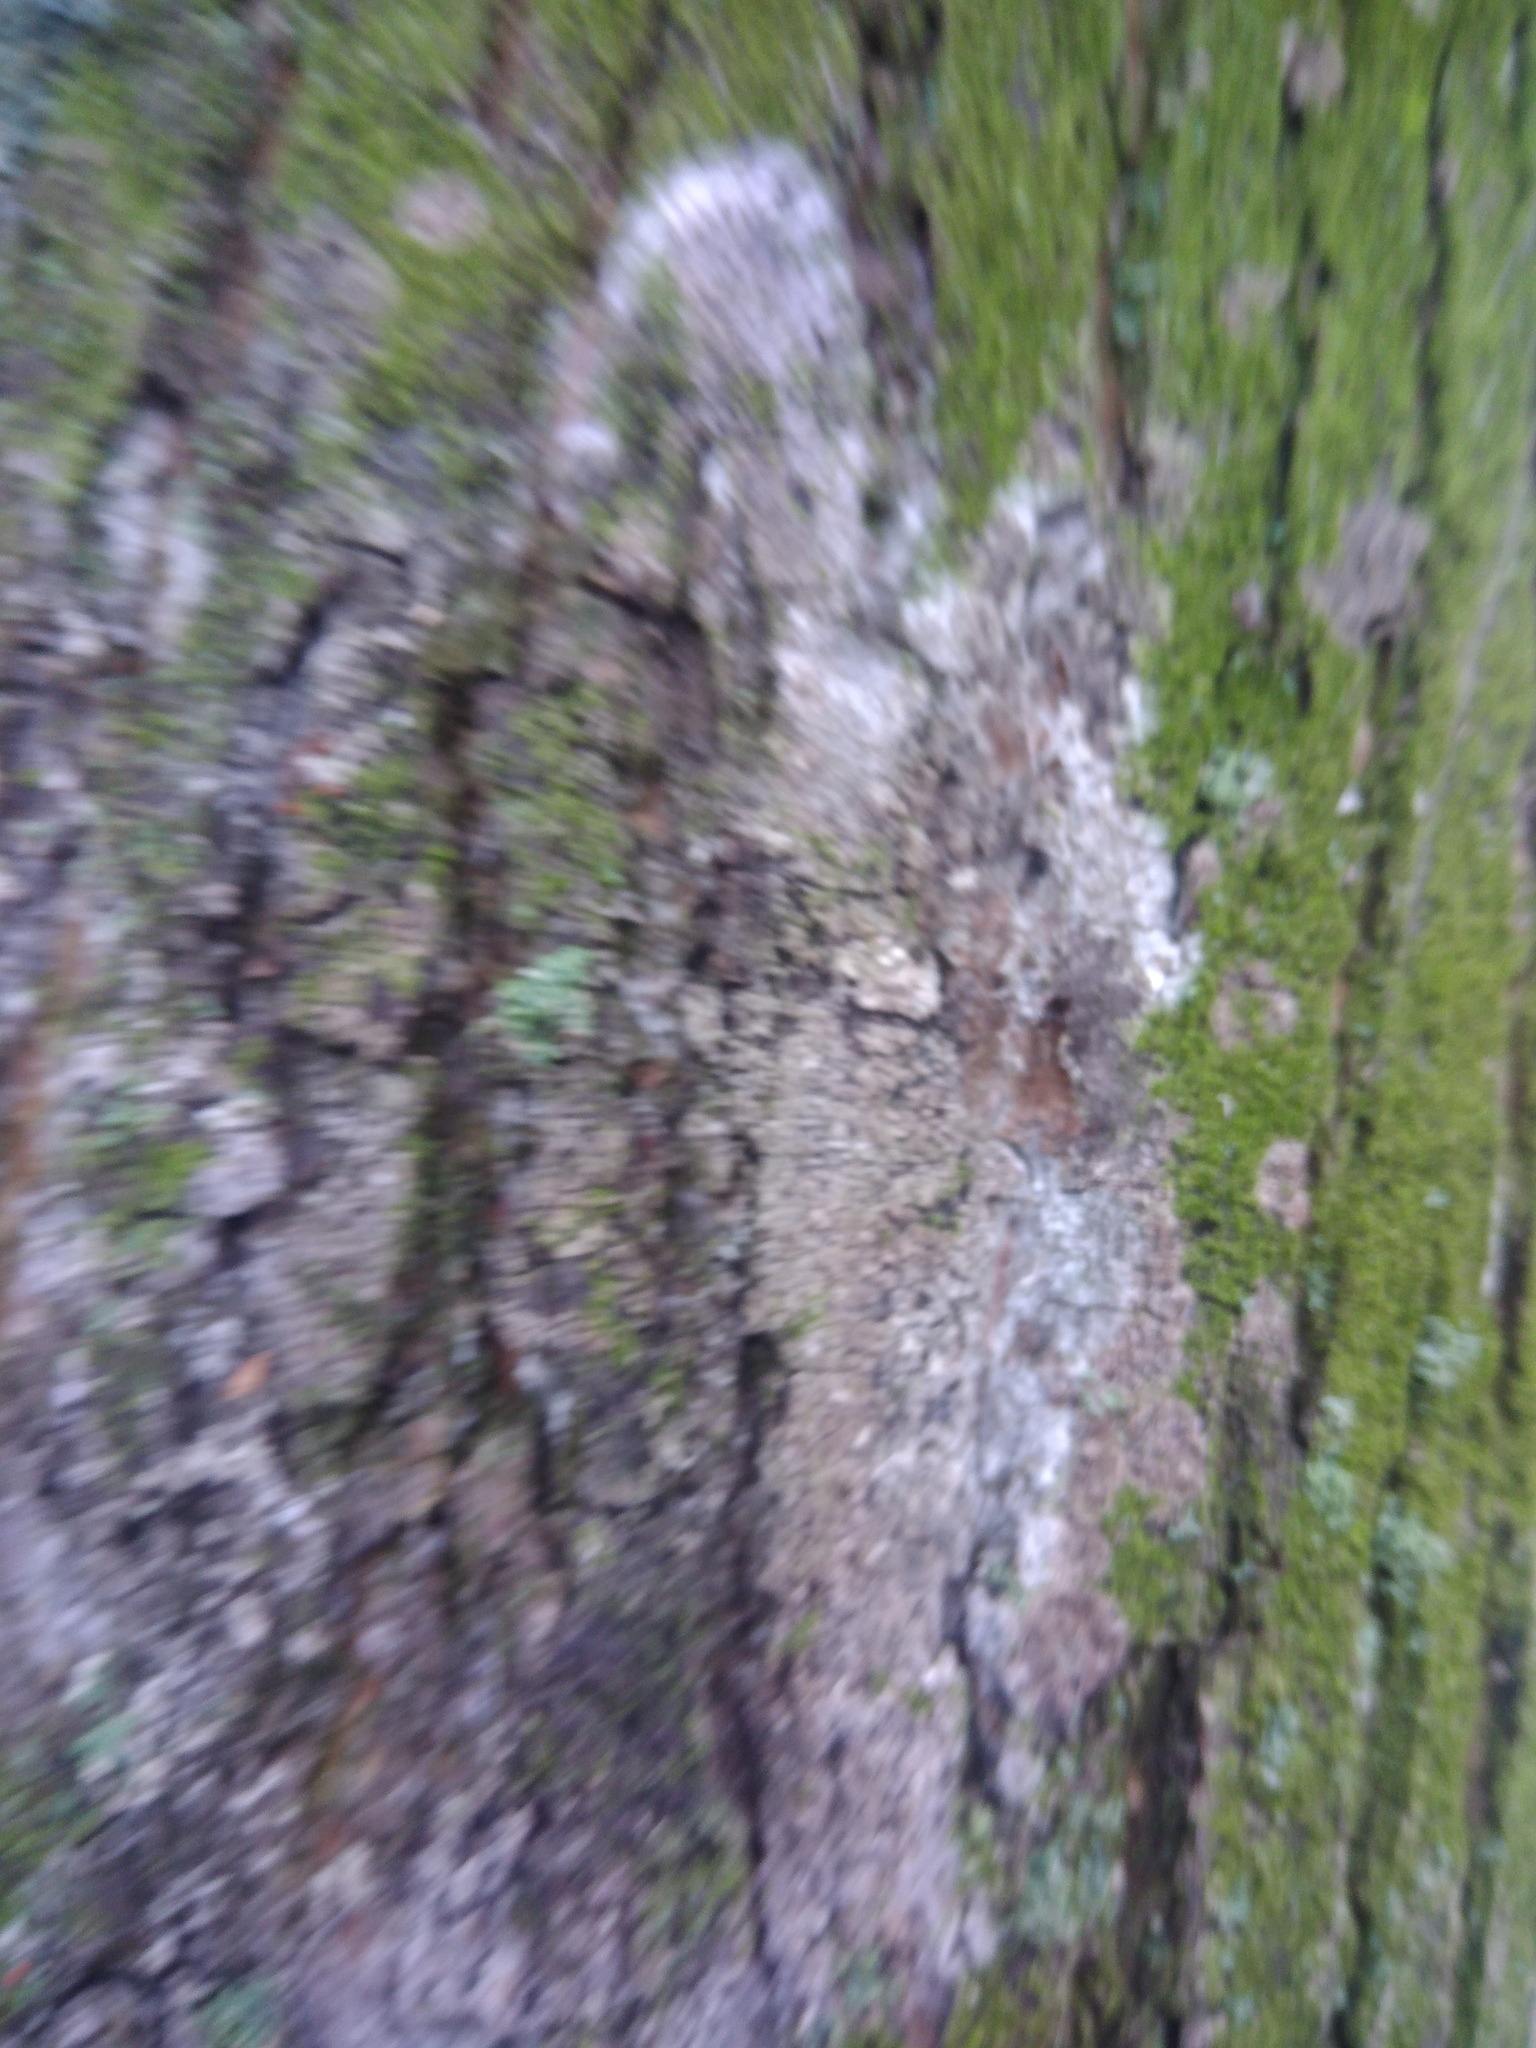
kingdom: Fungi
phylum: Basidiomycota
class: Agaricomycetes
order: Atheliales
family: Atheliaceae
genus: Athelia
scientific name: Athelia arachnoidea
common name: Candelabra duster
